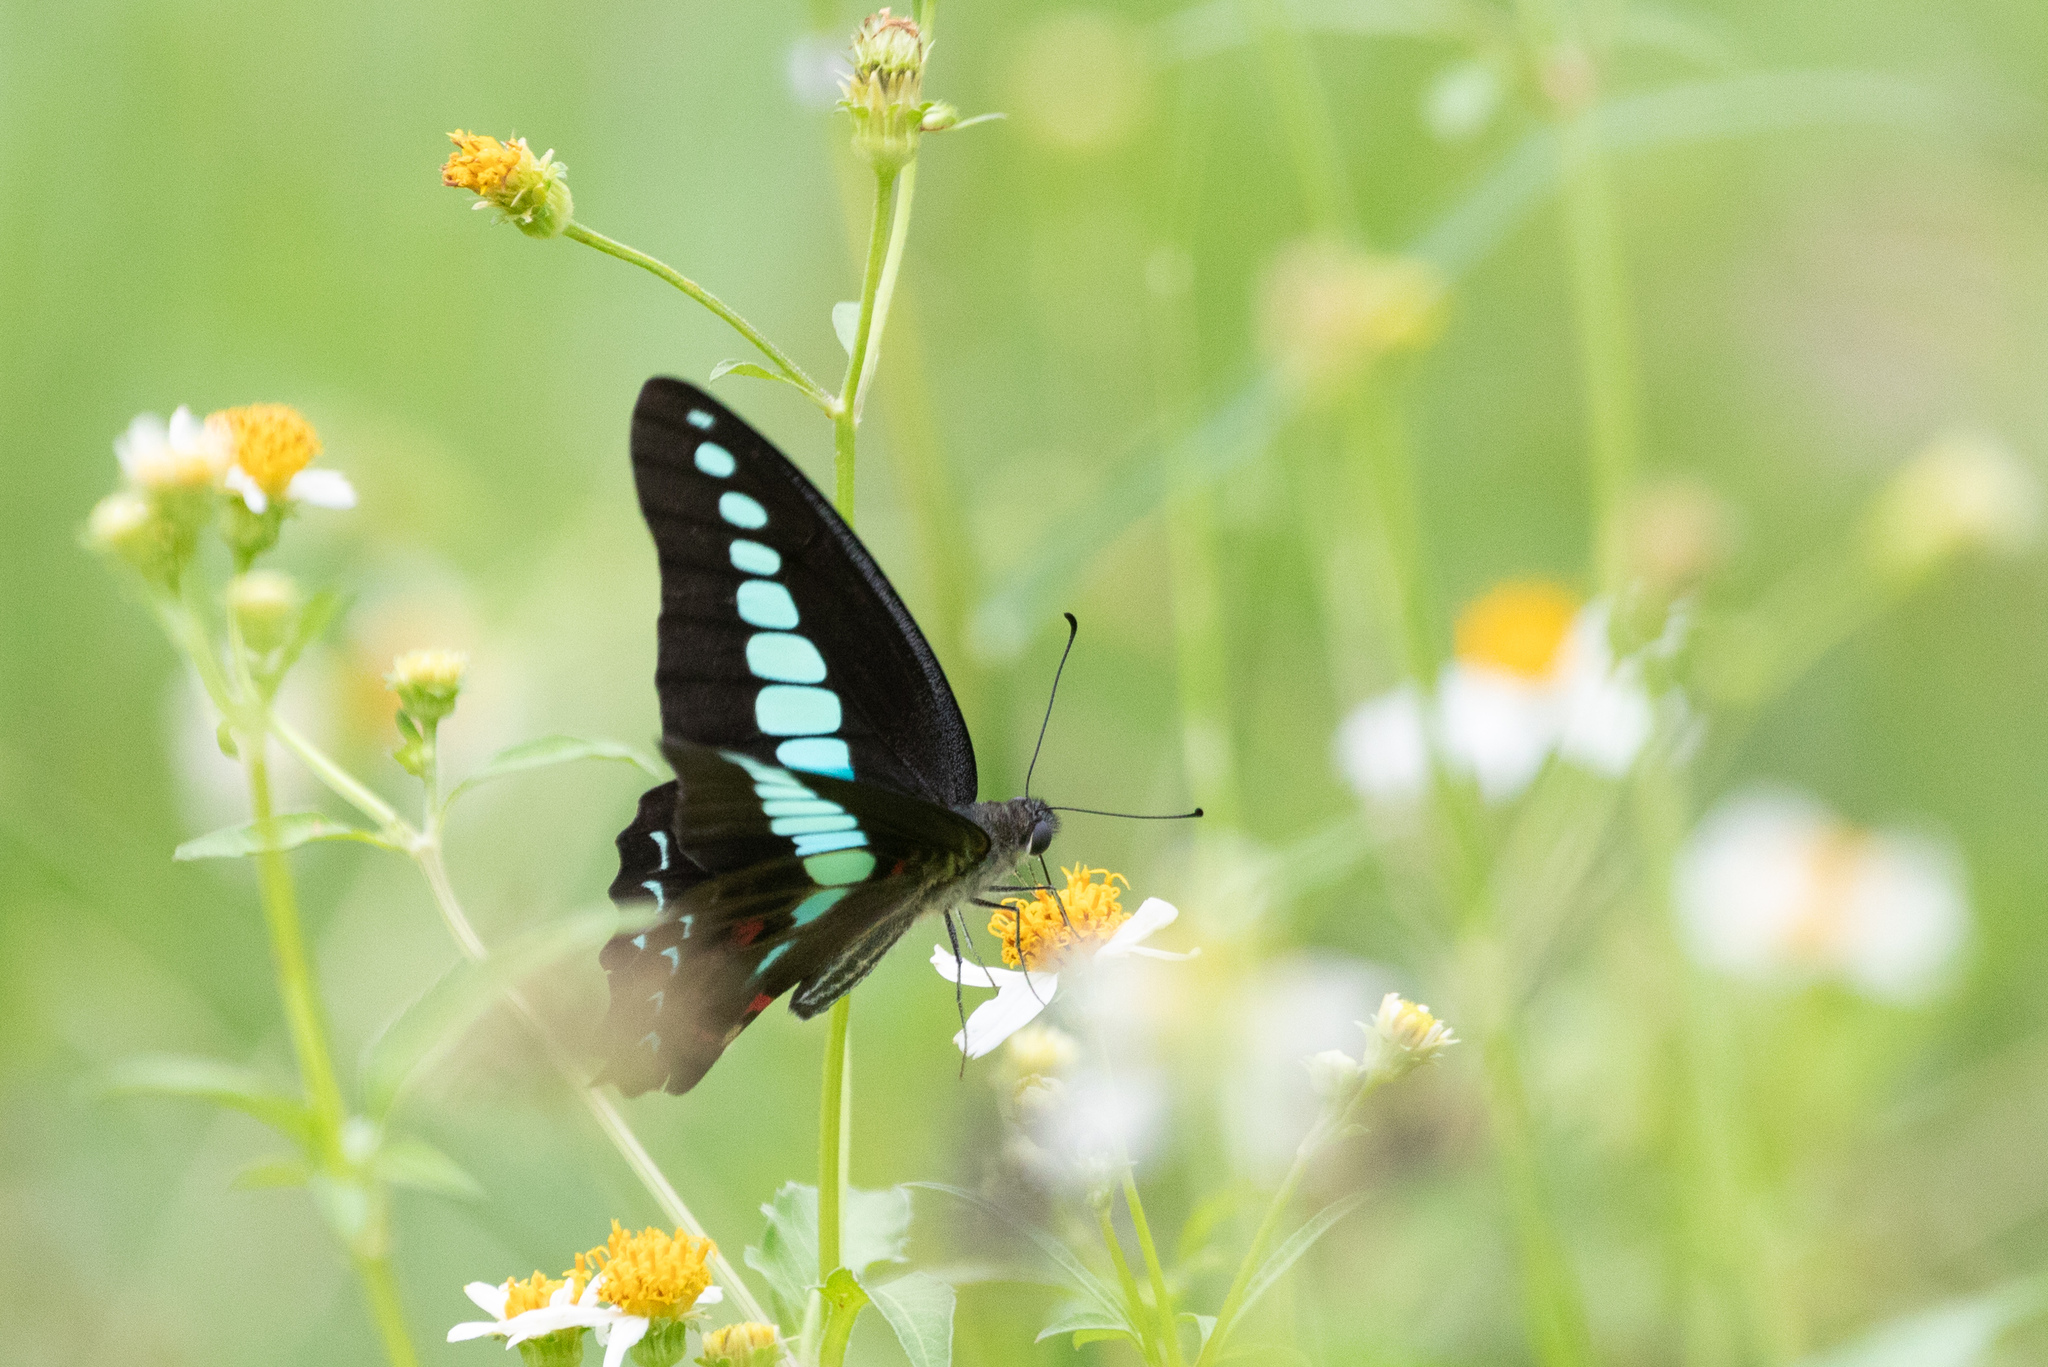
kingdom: Fungi
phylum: Ascomycota
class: Sordariomycetes
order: Microascales
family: Microascaceae
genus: Graphium
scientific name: Graphium sarpedon
